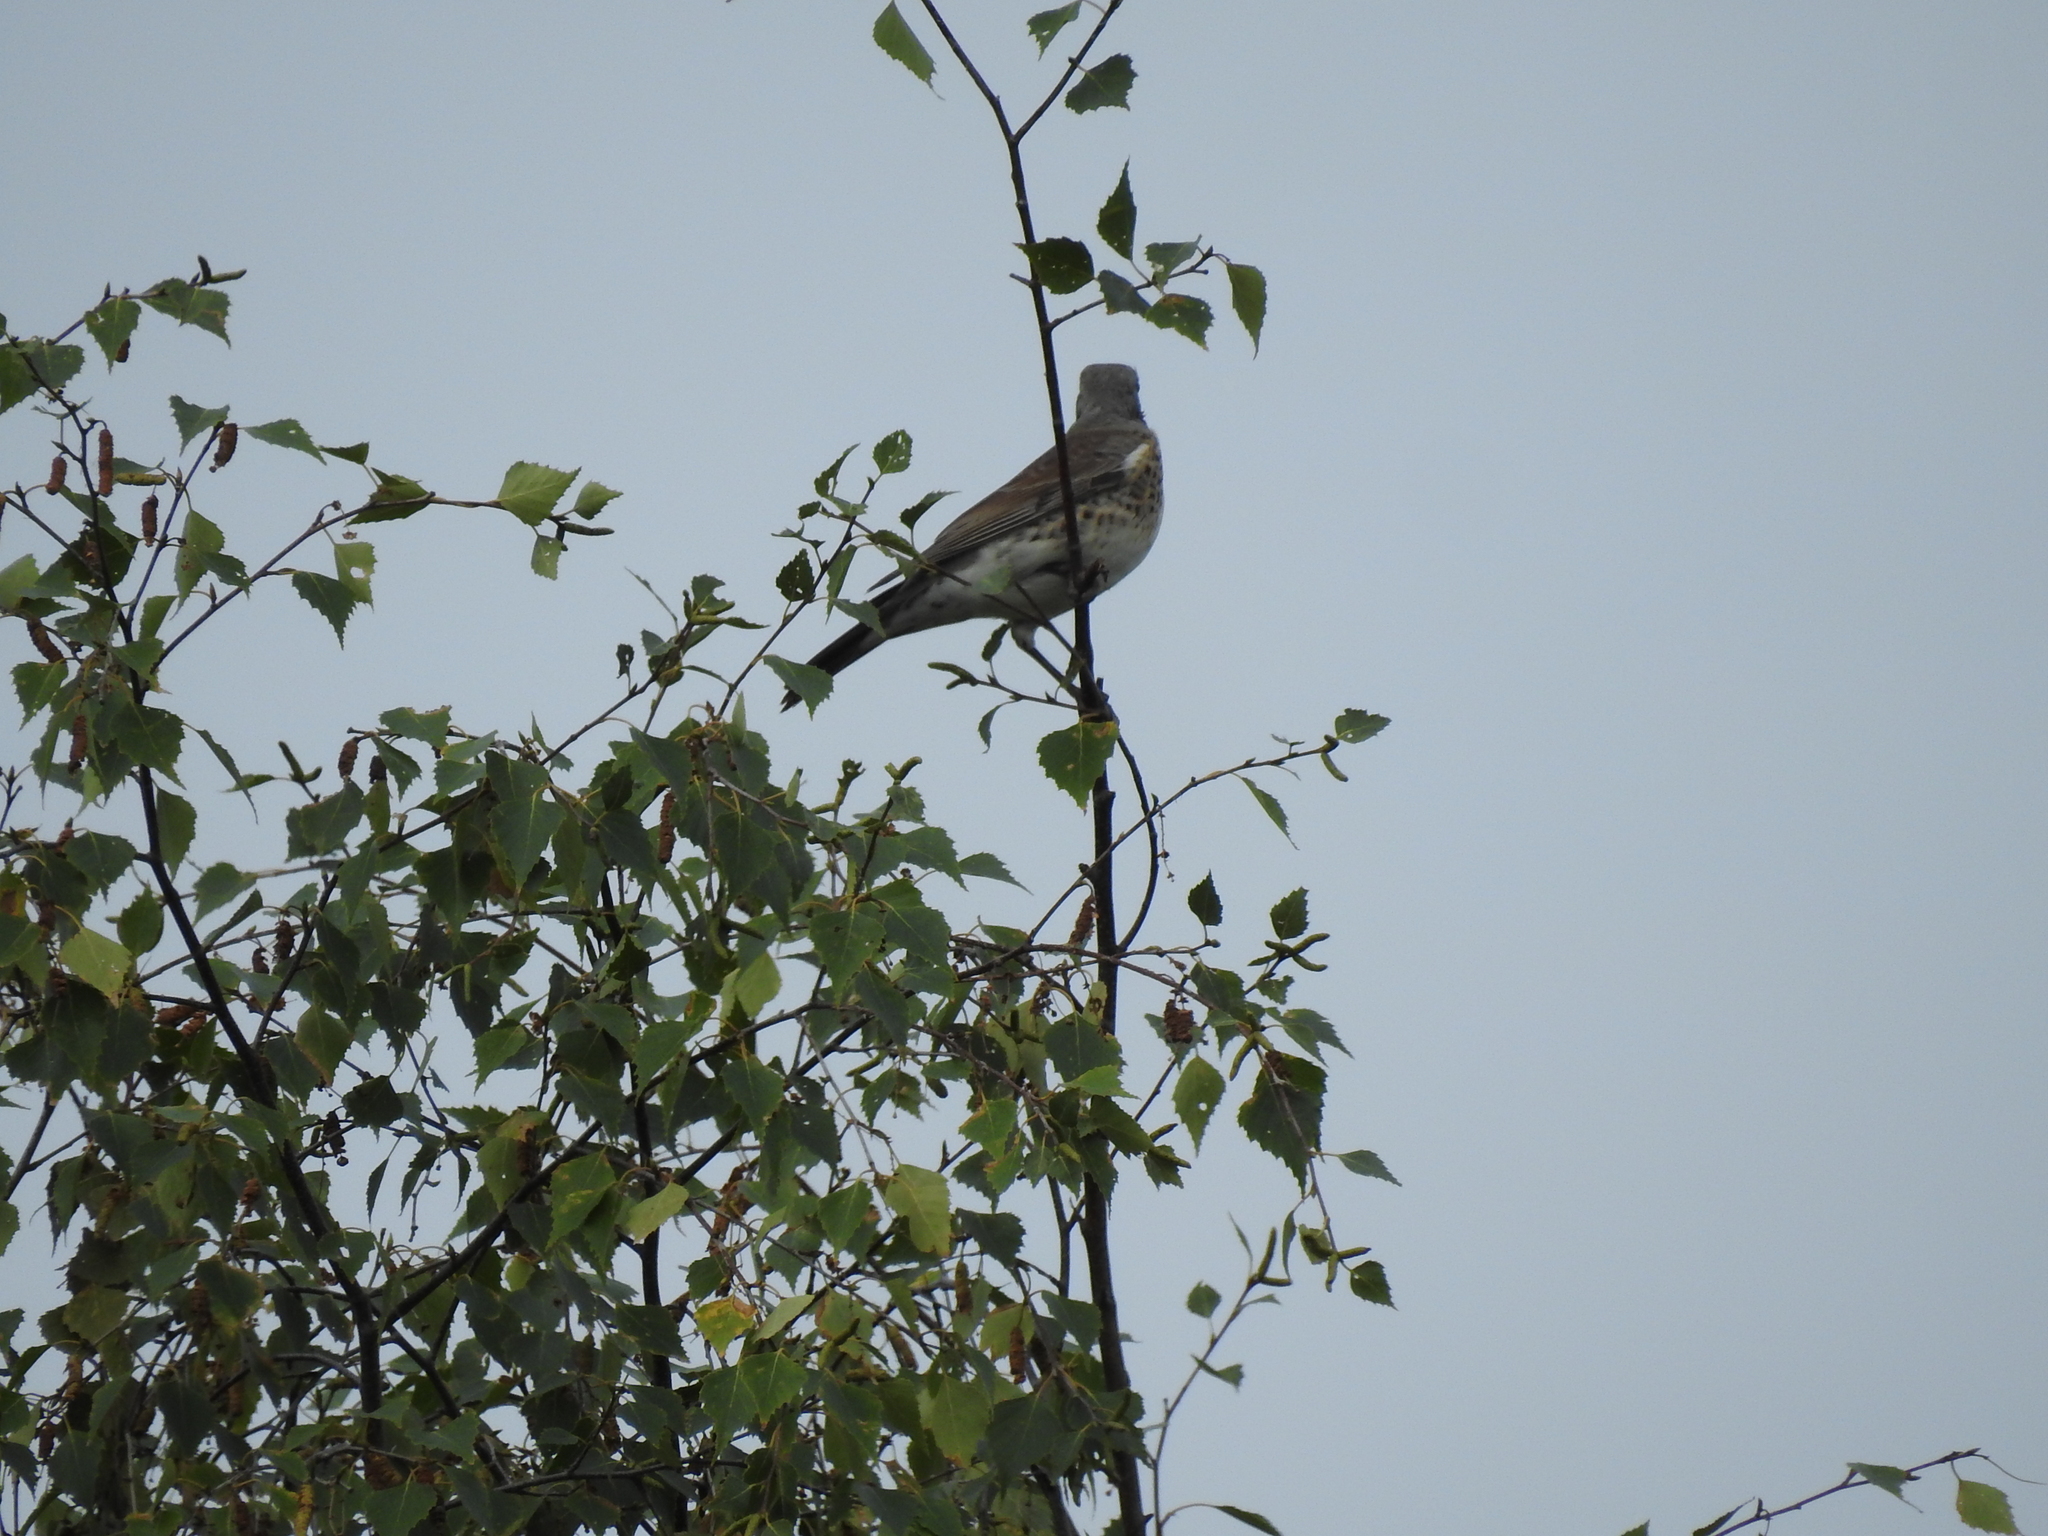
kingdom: Animalia
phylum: Chordata
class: Aves
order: Passeriformes
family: Turdidae
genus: Turdus
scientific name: Turdus pilaris
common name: Fieldfare
